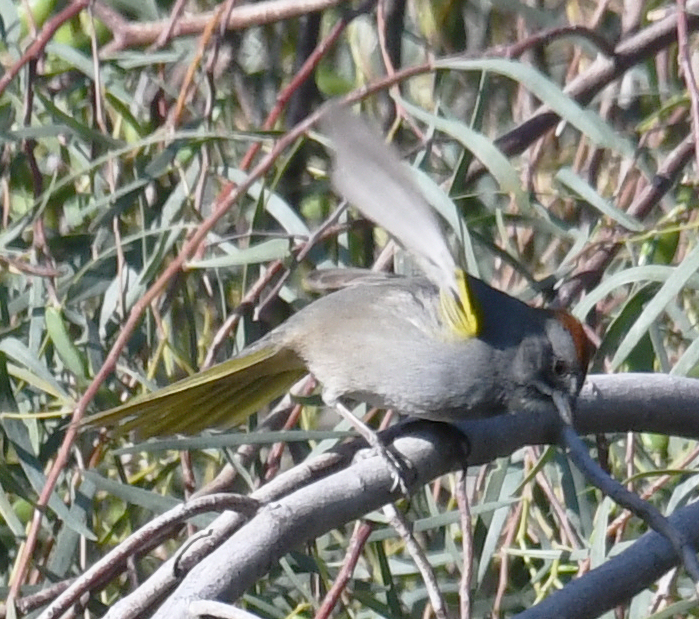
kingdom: Animalia
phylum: Chordata
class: Aves
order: Passeriformes
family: Passerellidae
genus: Pipilo
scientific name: Pipilo chlorurus
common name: Green-tailed towhee
